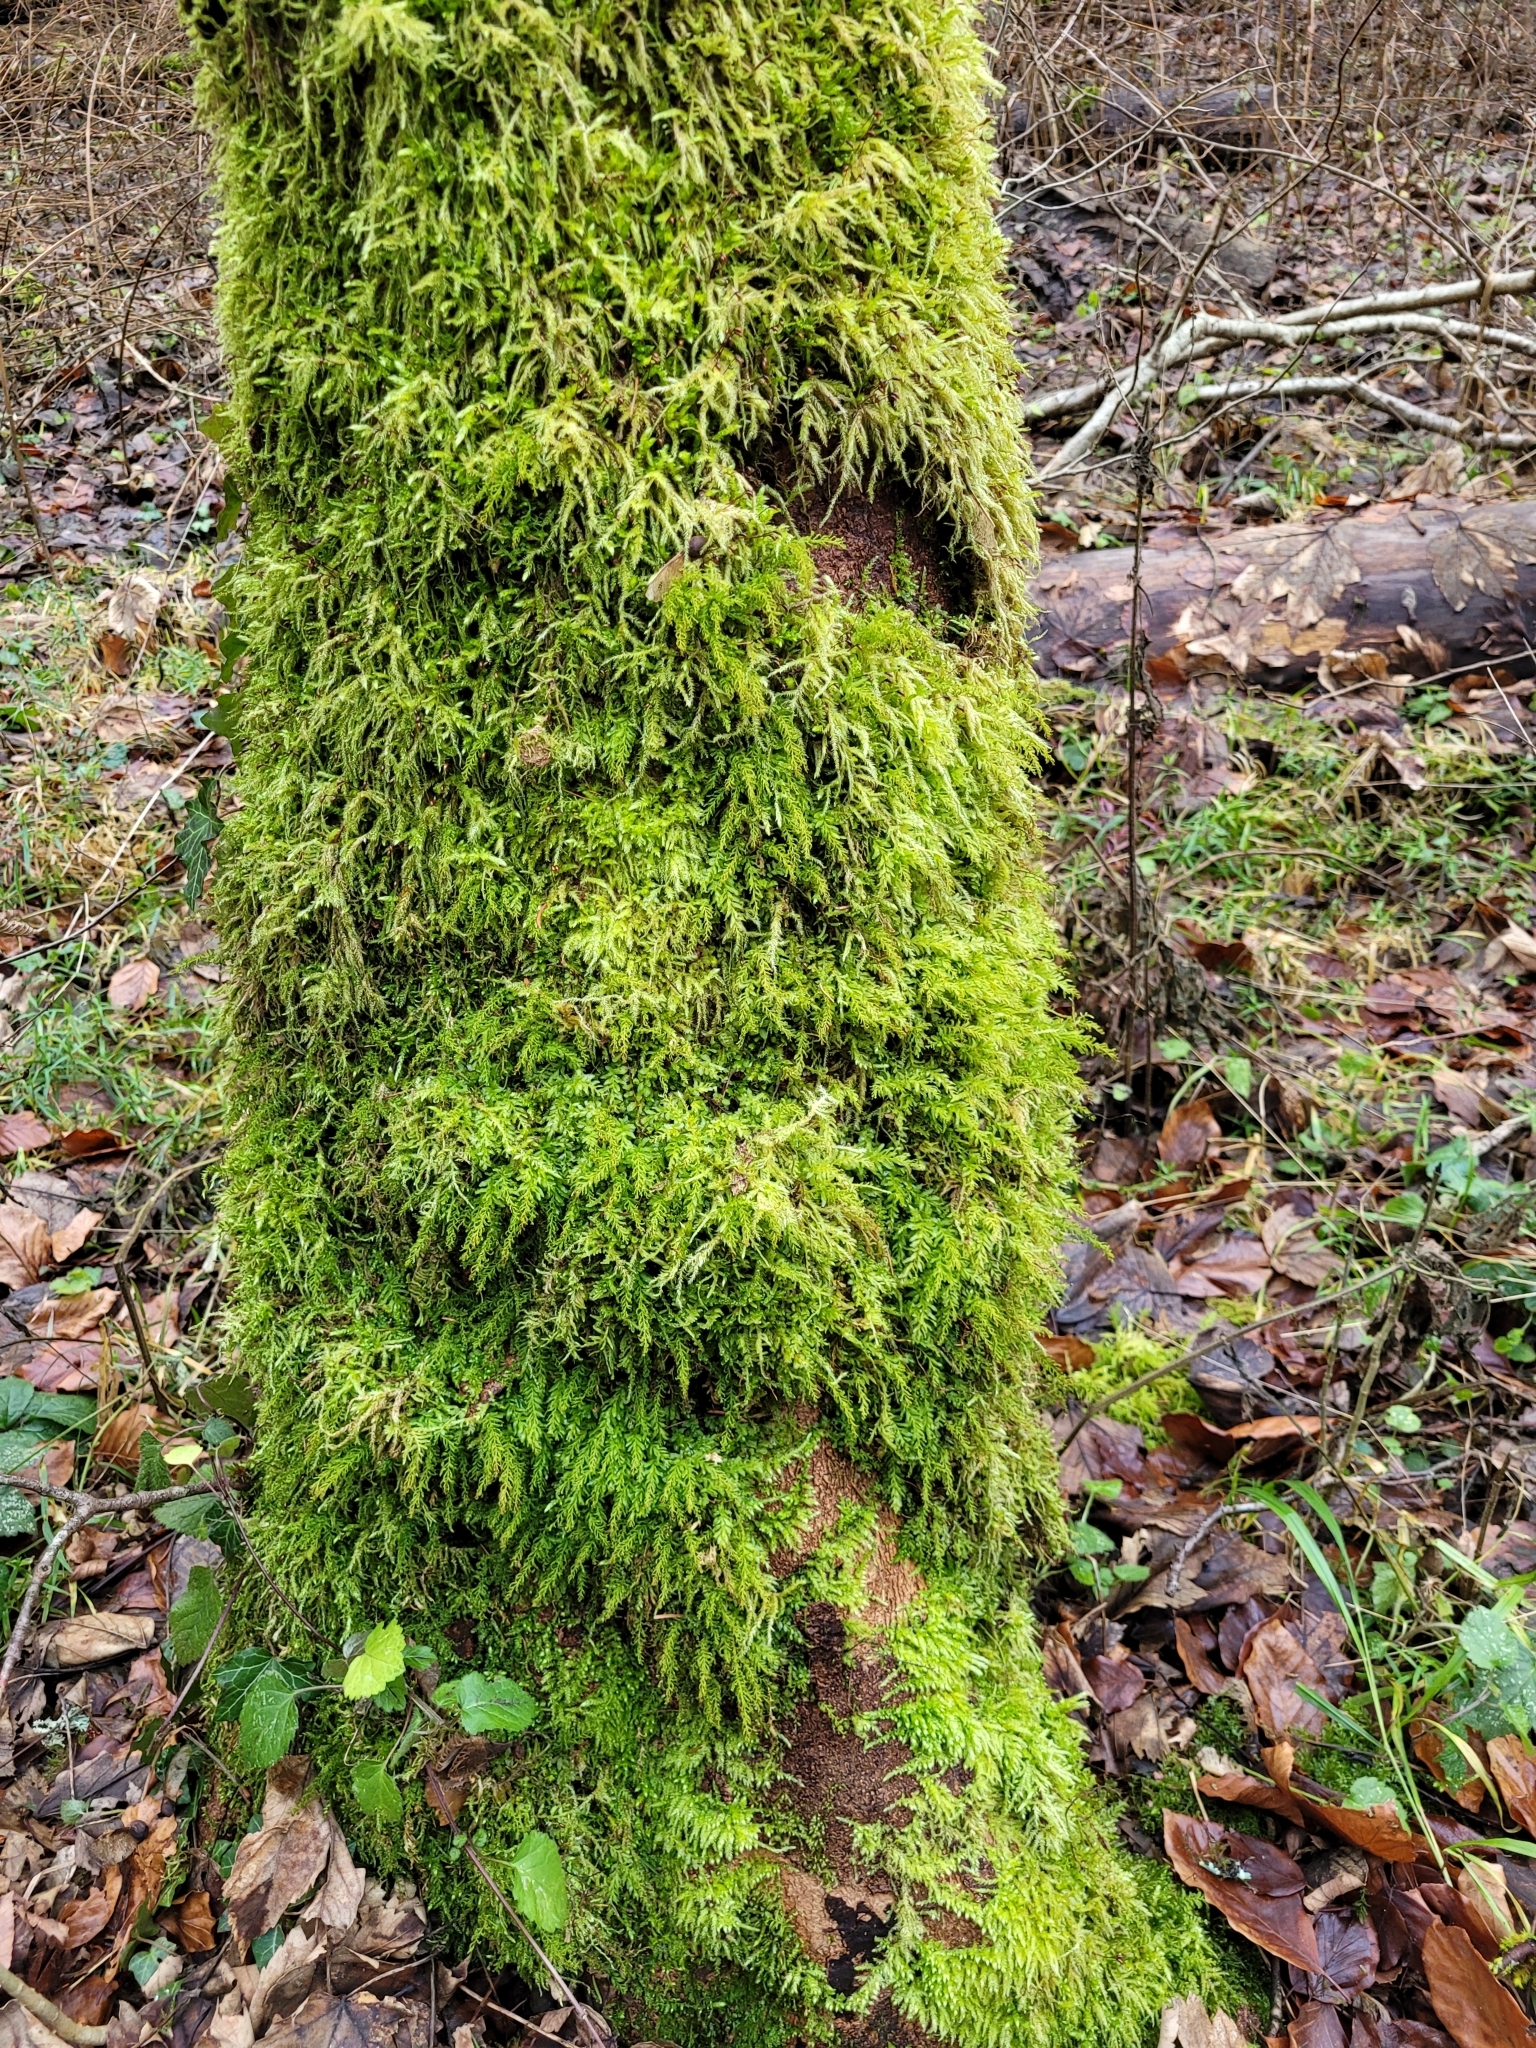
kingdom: Plantae
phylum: Bryophyta
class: Bryopsida
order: Bryales
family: Mniaceae
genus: Plagiomnium
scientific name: Plagiomnium undulatum
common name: Hart's-tongue thyme-moss
